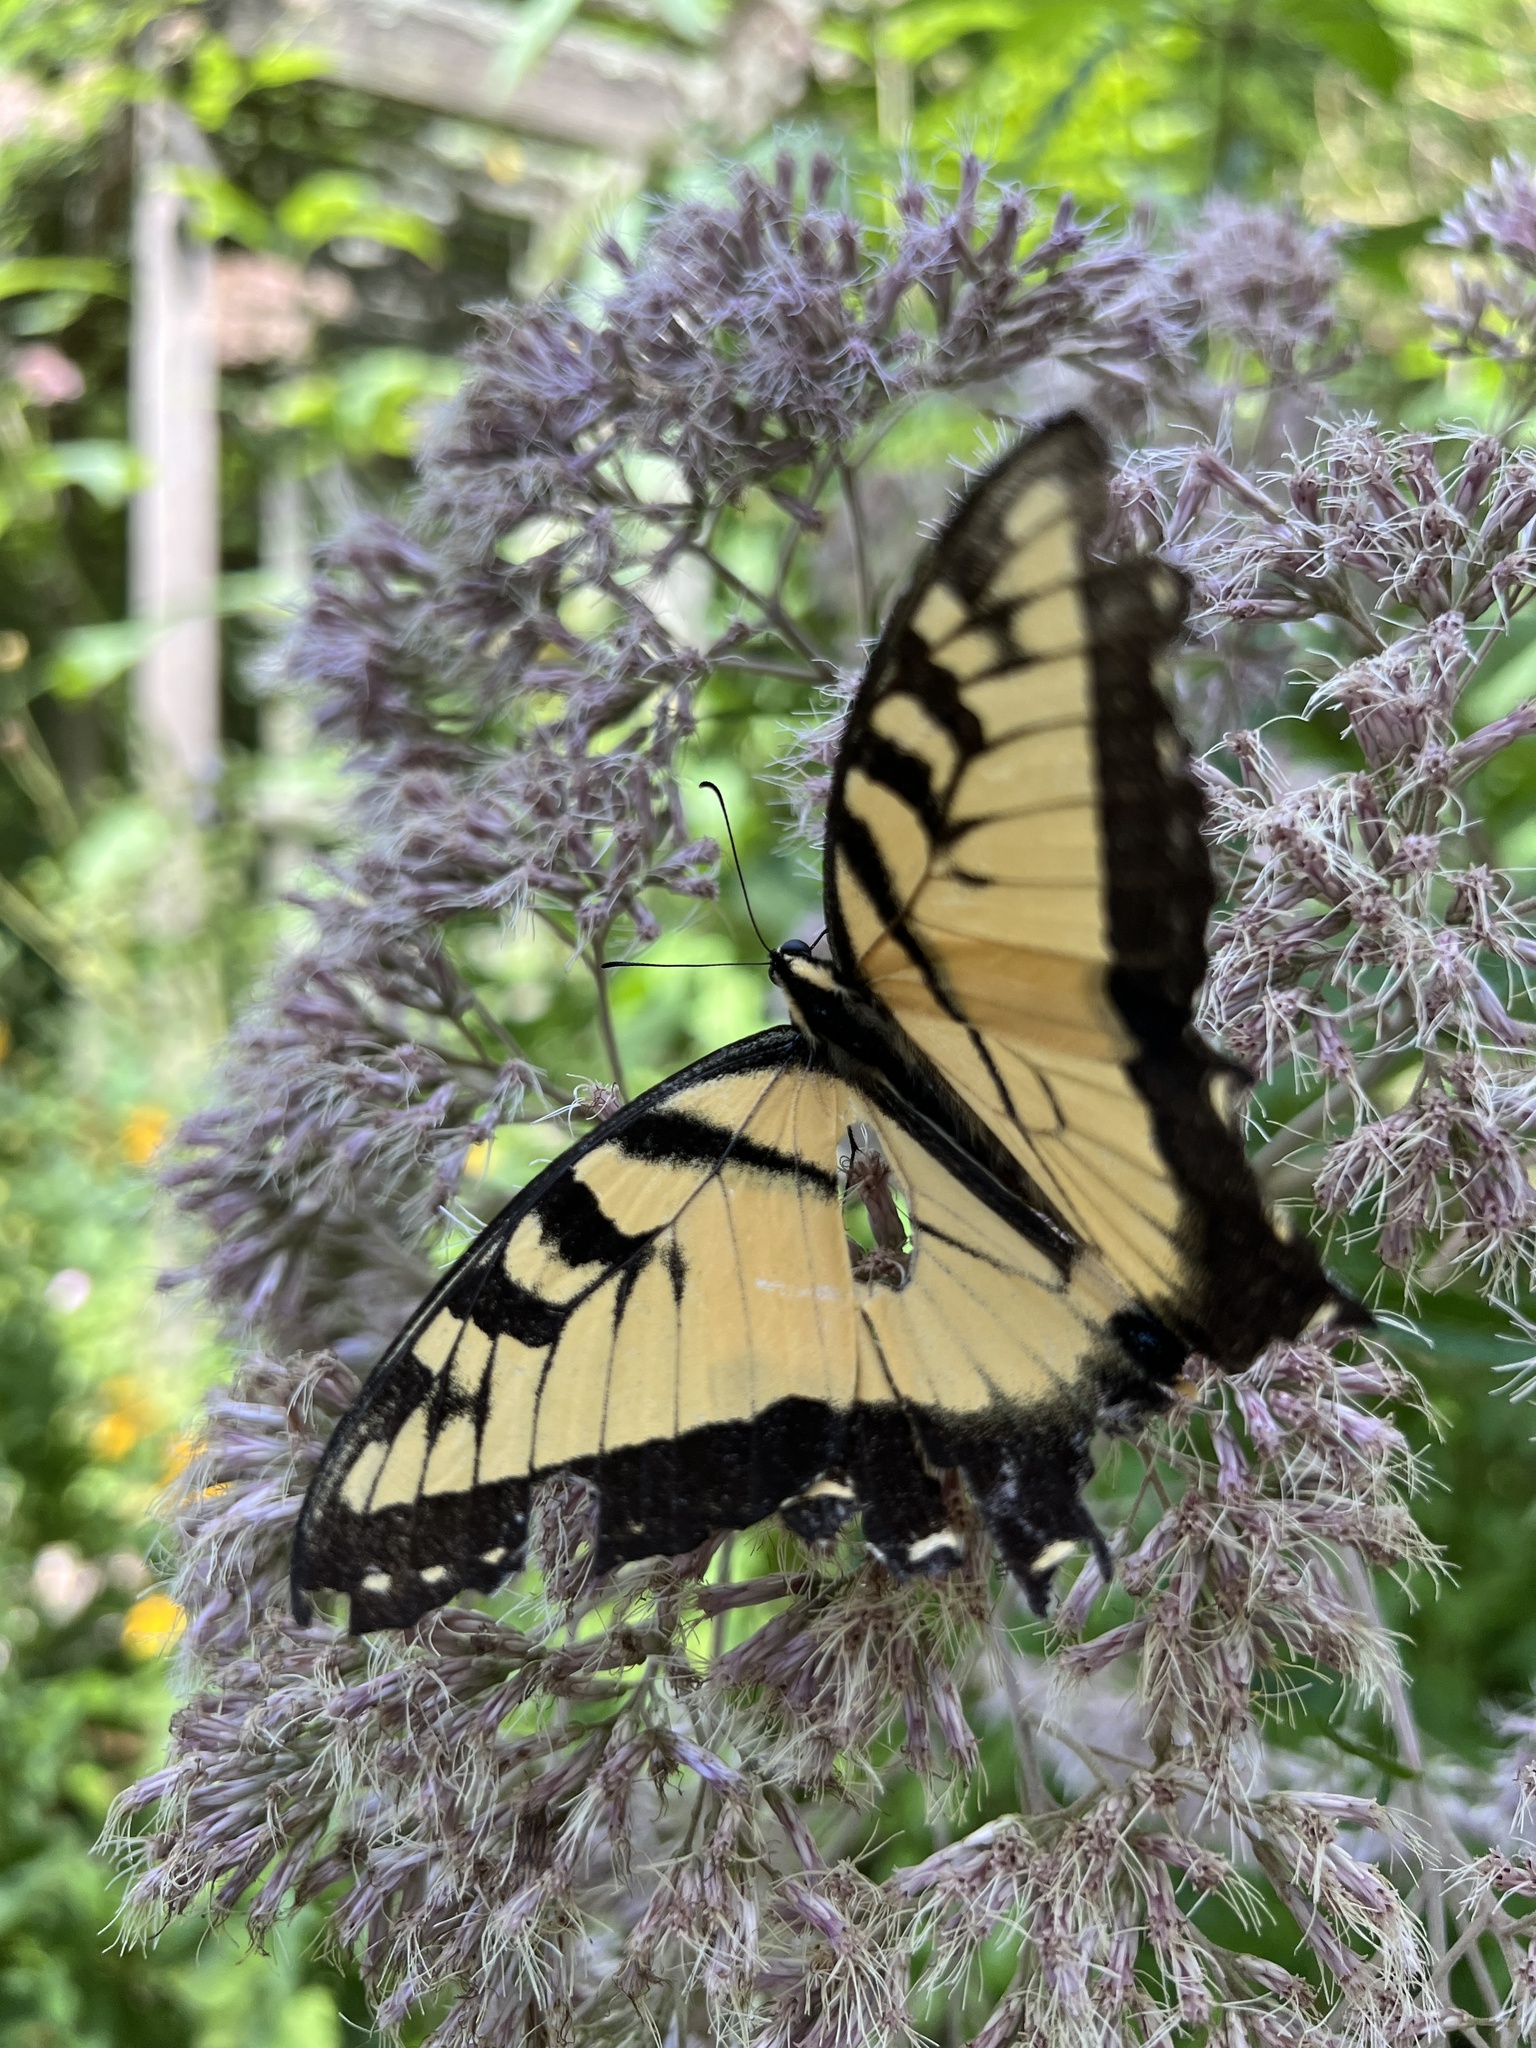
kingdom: Animalia
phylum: Arthropoda
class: Insecta
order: Lepidoptera
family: Papilionidae
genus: Papilio
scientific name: Papilio glaucus
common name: Tiger swallowtail
